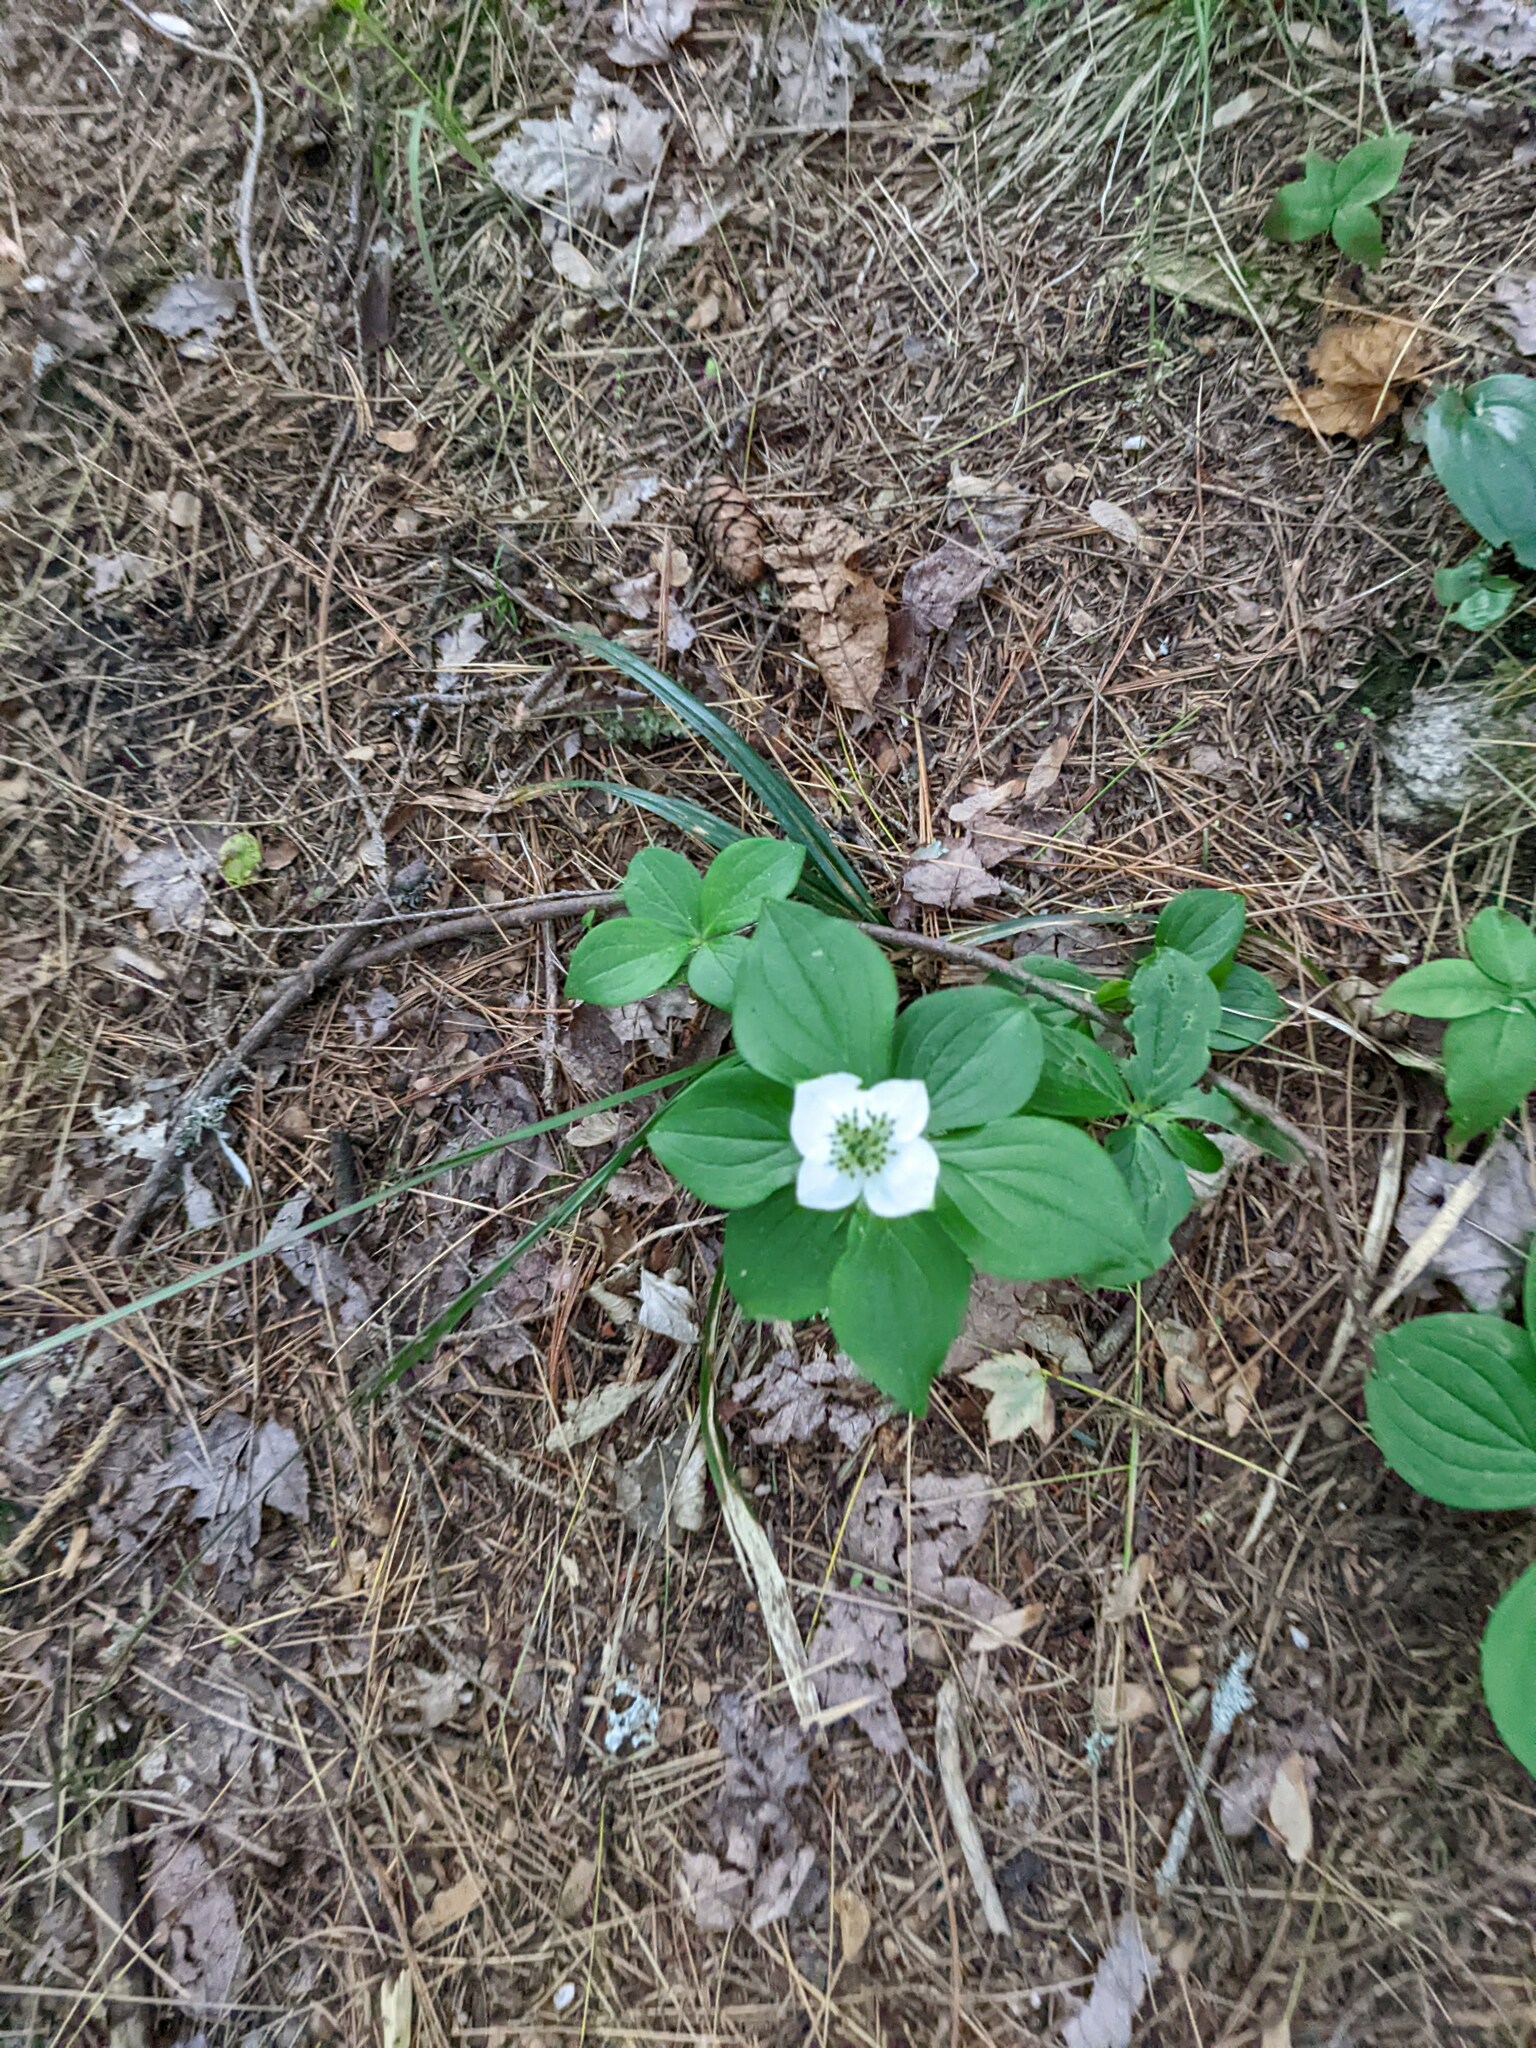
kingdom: Plantae
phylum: Tracheophyta
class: Magnoliopsida
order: Cornales
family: Cornaceae
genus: Cornus
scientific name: Cornus canadensis
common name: Creeping dogwood
